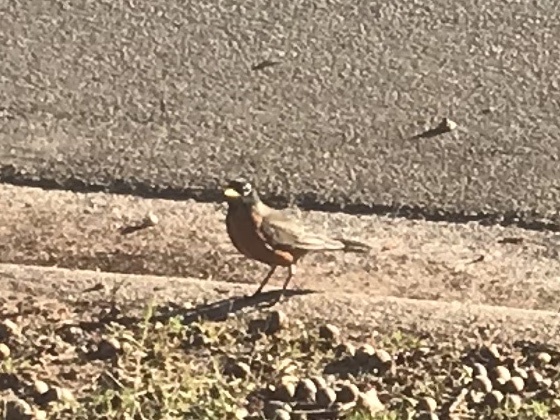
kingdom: Animalia
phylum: Chordata
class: Aves
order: Passeriformes
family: Turdidae
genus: Turdus
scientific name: Turdus migratorius
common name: American robin
